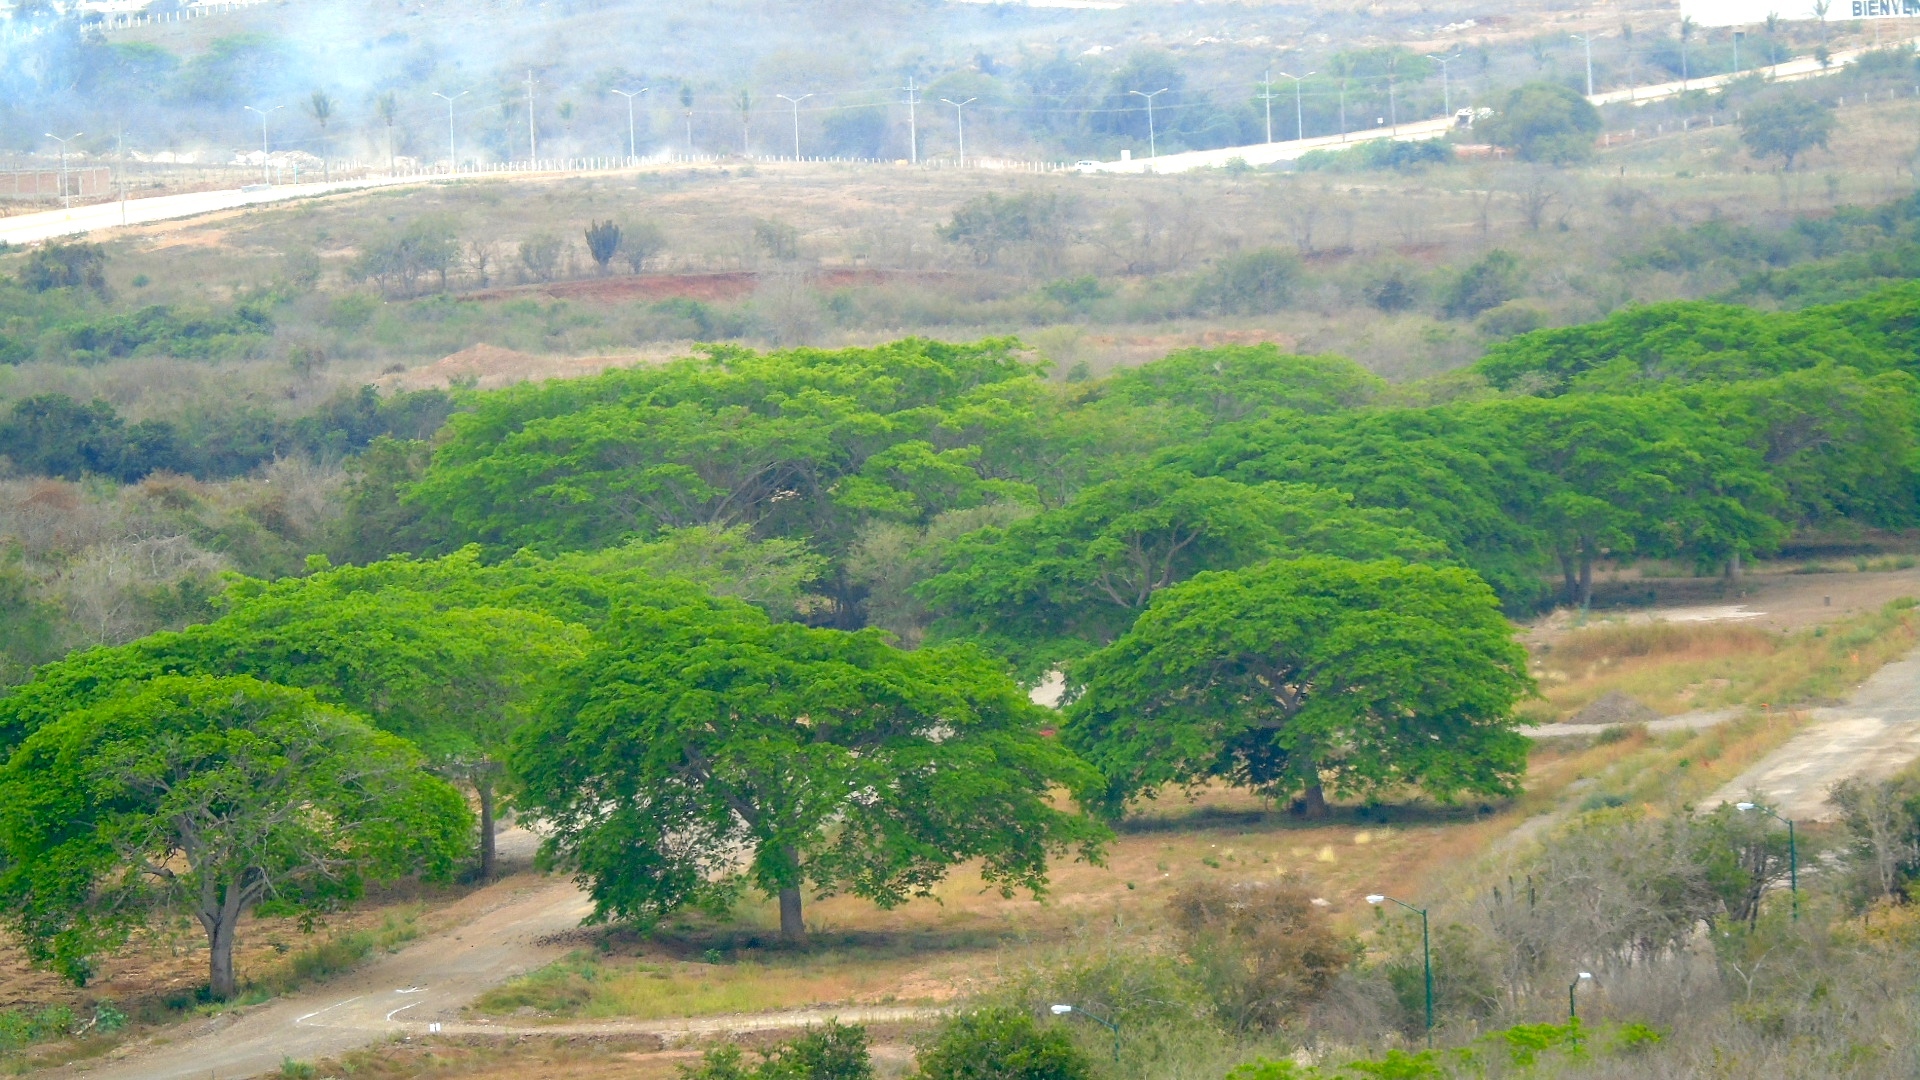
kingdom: Plantae
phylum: Tracheophyta
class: Magnoliopsida
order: Fabales
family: Fabaceae
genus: Enterolobium
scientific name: Enterolobium cyclocarpum
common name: Ear tree
